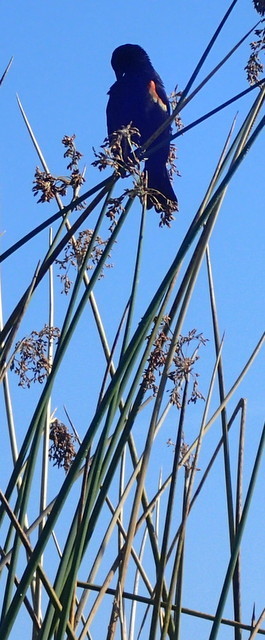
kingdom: Animalia
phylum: Chordata
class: Aves
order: Passeriformes
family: Icteridae
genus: Agelaius
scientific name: Agelaius phoeniceus
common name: Red-winged blackbird
